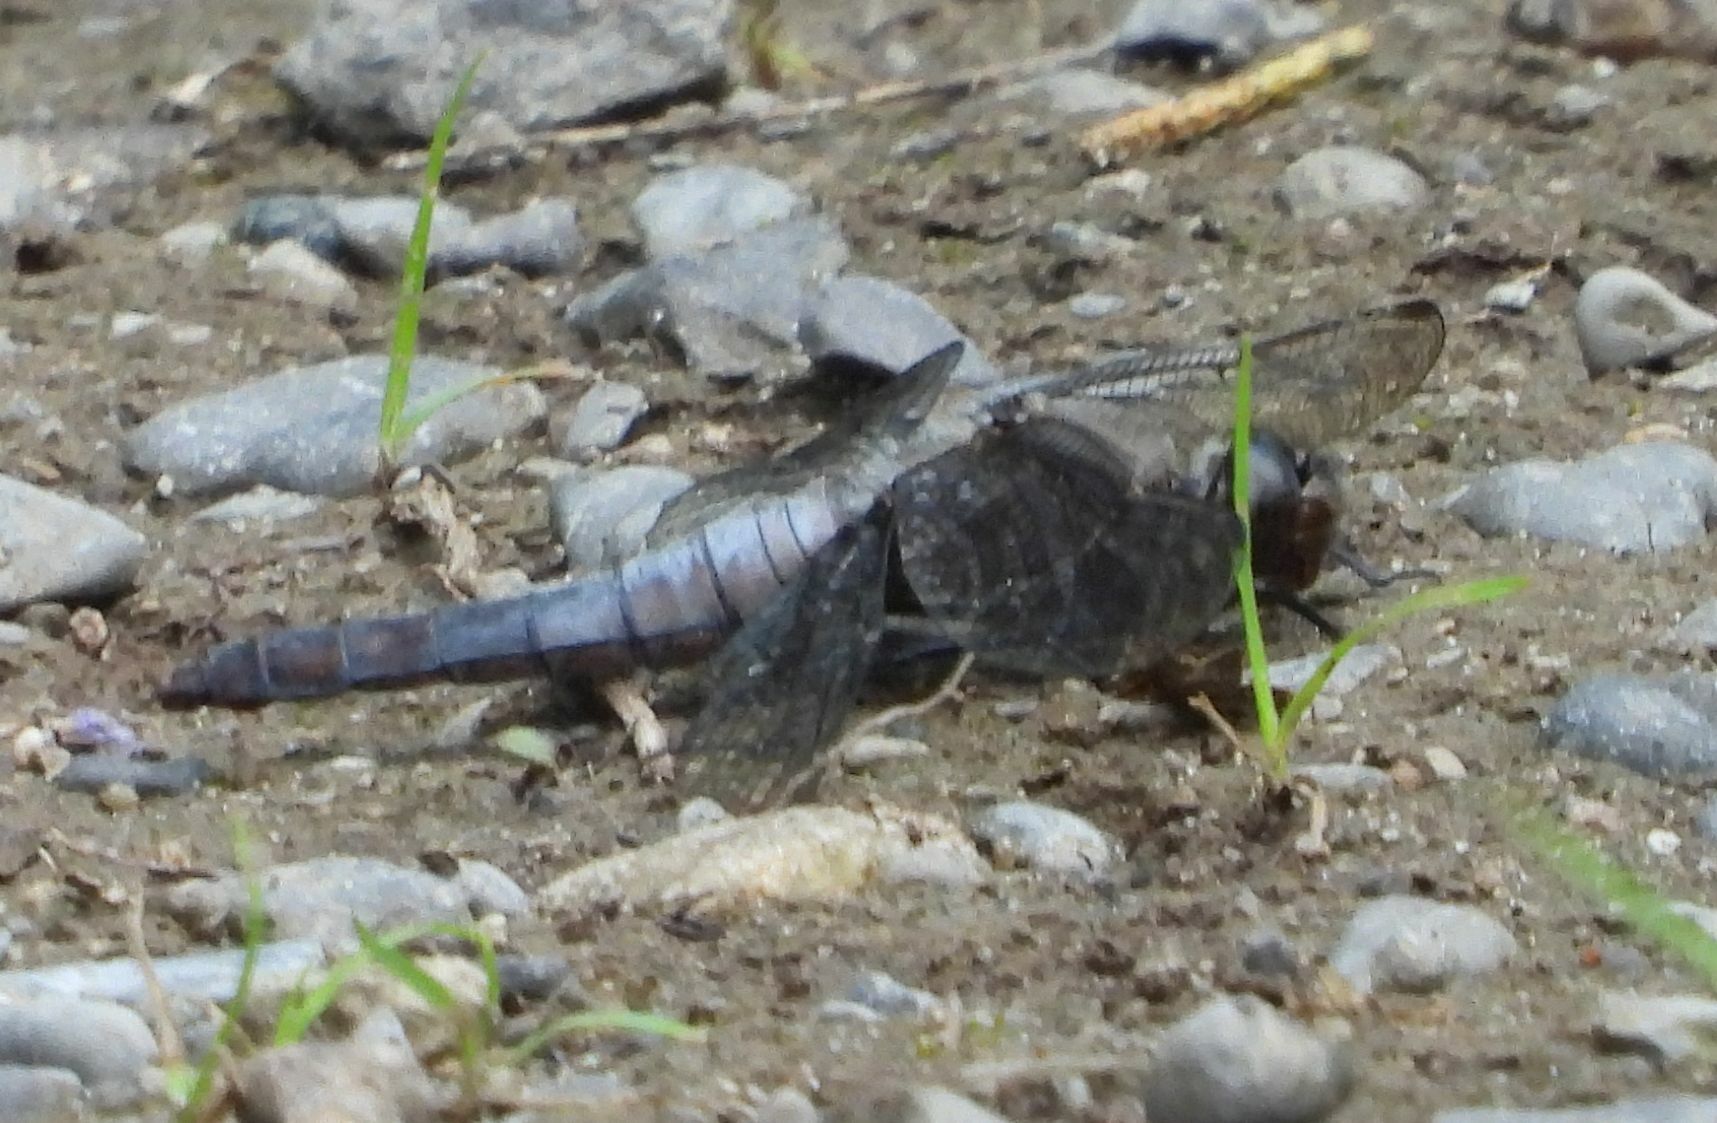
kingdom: Animalia
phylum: Arthropoda
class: Insecta
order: Odonata
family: Libellulidae
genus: Ladona
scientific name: Ladona julia
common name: Chalk-fronted corporal
